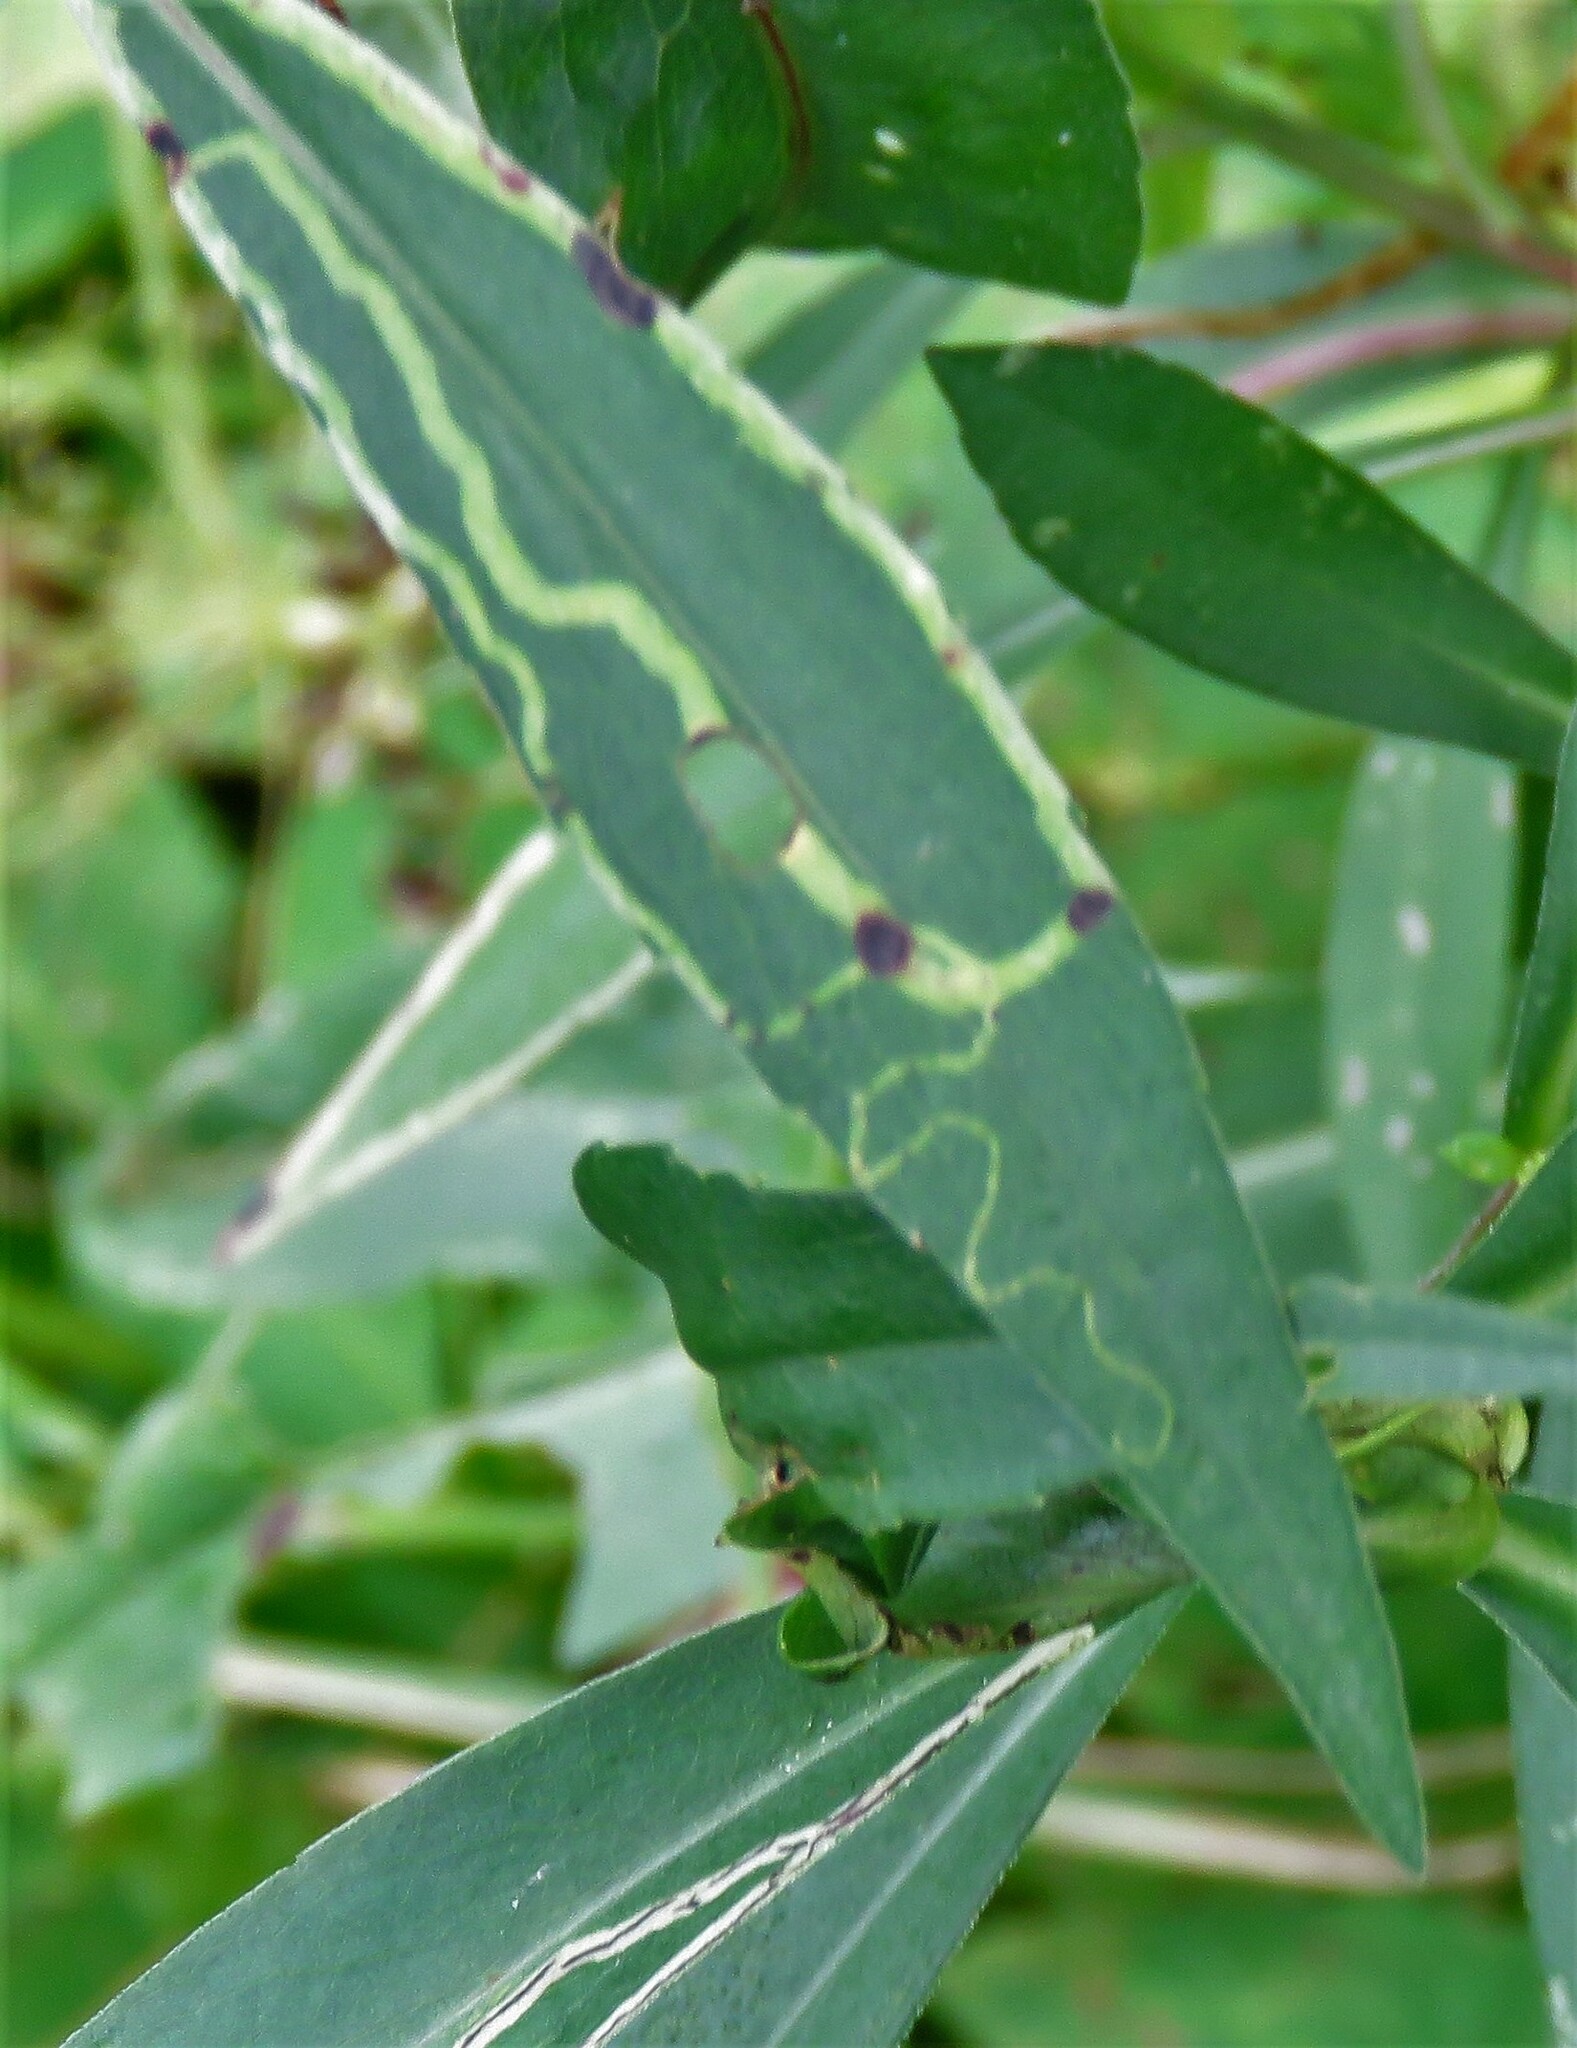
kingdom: Animalia
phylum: Arthropoda
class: Insecta
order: Diptera
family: Agromyzidae
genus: Ophiomyia
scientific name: Ophiomyia parda
